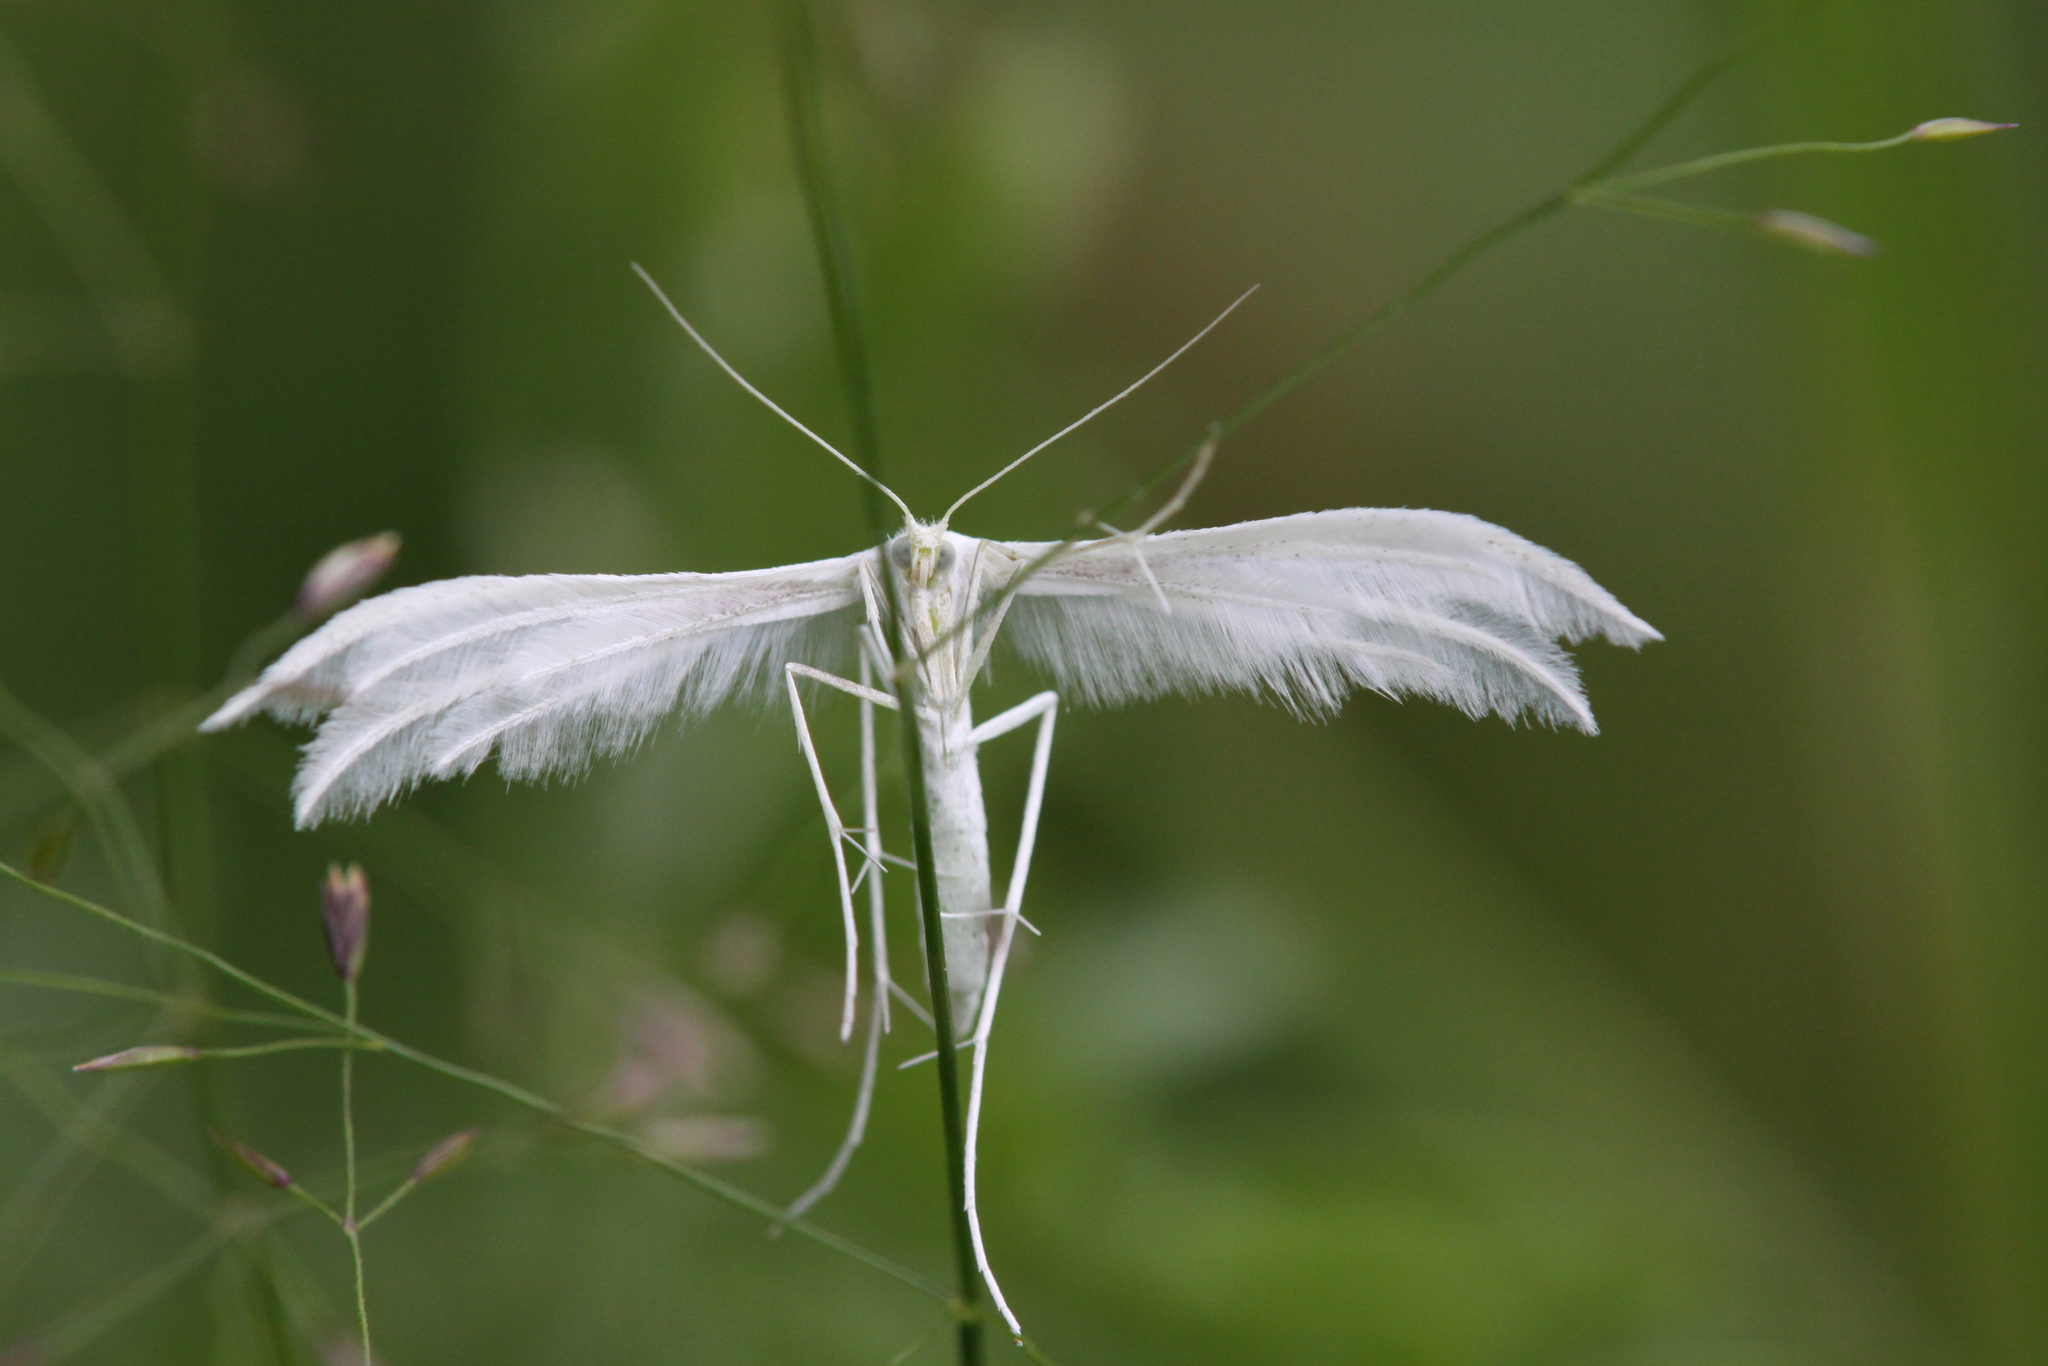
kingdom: Animalia
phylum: Arthropoda
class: Insecta
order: Lepidoptera
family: Pterophoridae
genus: Pterophorus
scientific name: Pterophorus pentadactyla
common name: White plume moth
